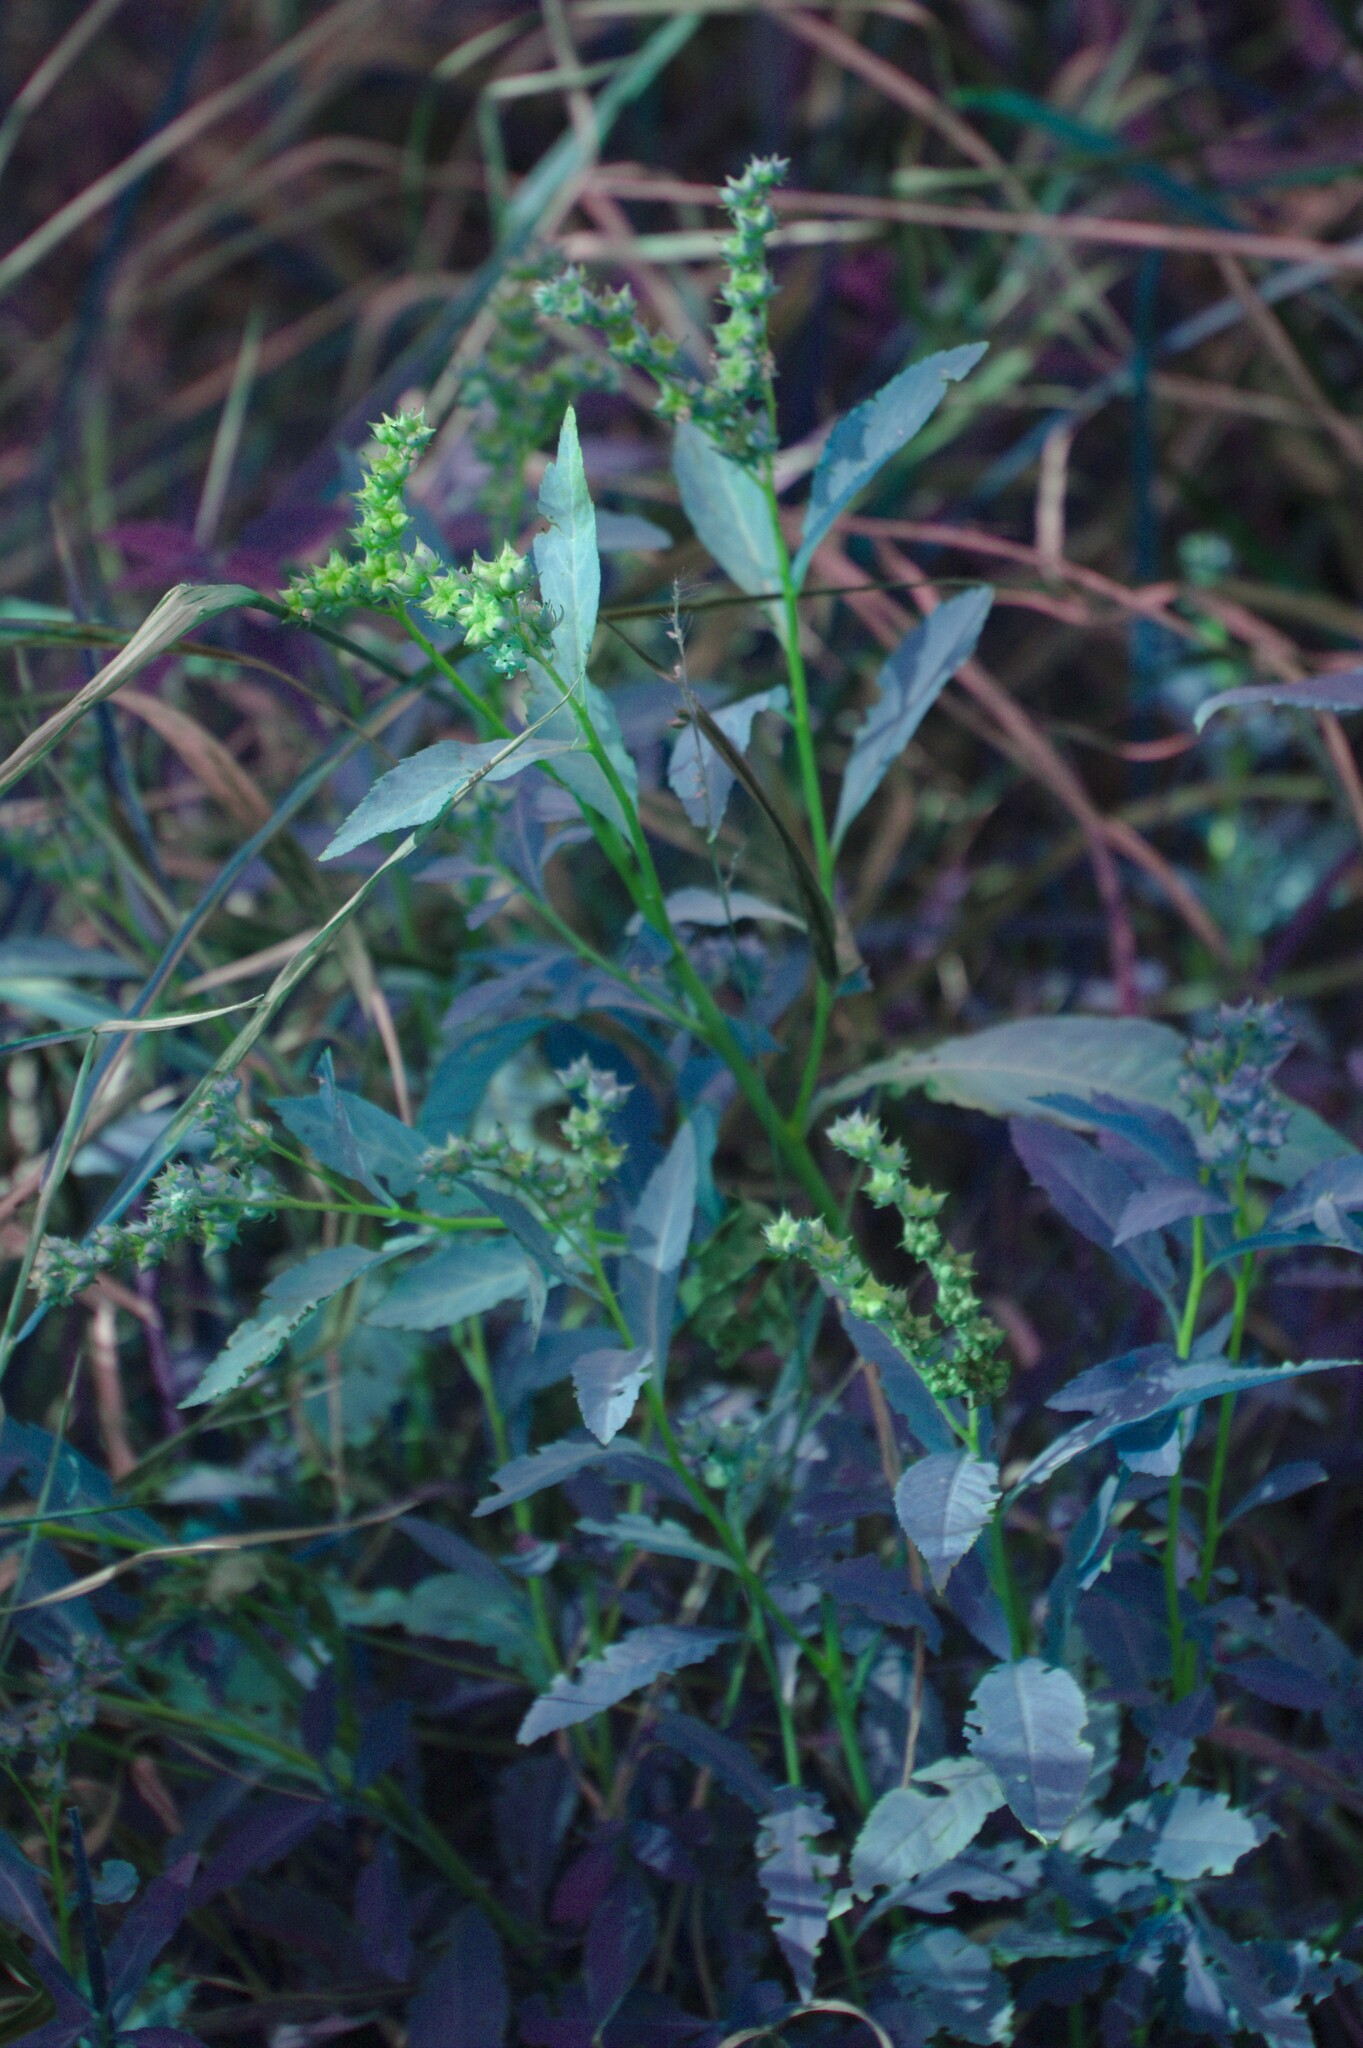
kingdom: Plantae
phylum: Tracheophyta
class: Magnoliopsida
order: Saxifragales
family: Penthoraceae
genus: Penthorum
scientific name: Penthorum sedoides
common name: Ditch stonecrop
